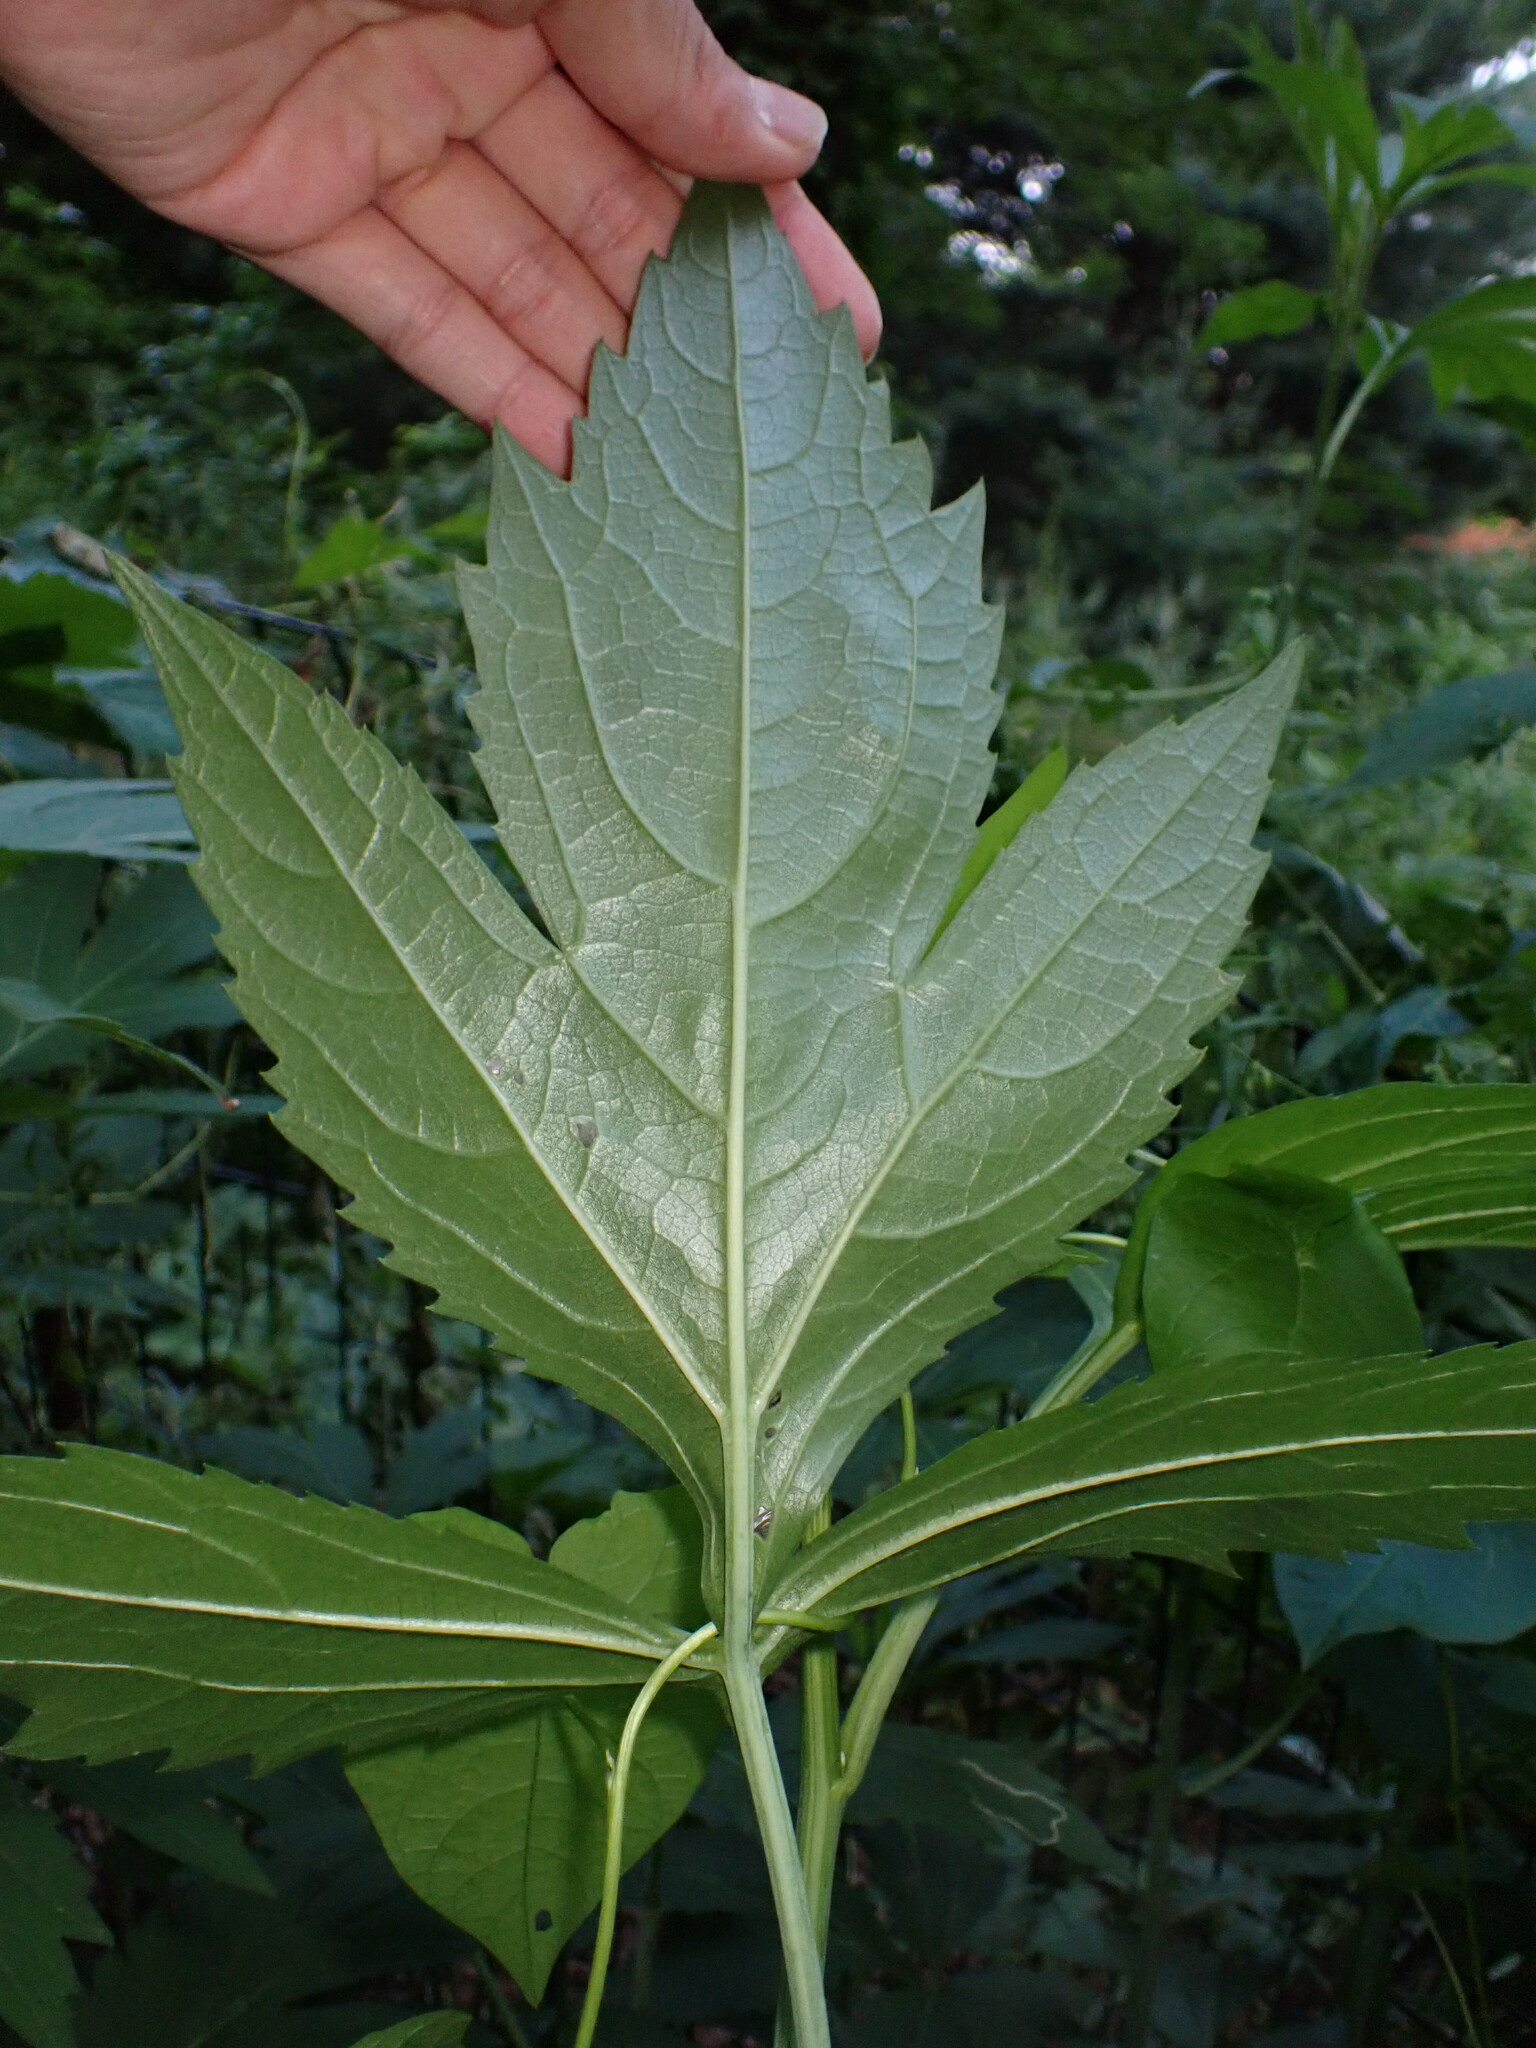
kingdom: Plantae
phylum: Tracheophyta
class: Magnoliopsida
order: Asterales
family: Asteraceae
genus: Rudbeckia
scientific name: Rudbeckia laciniata
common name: Coneflower
